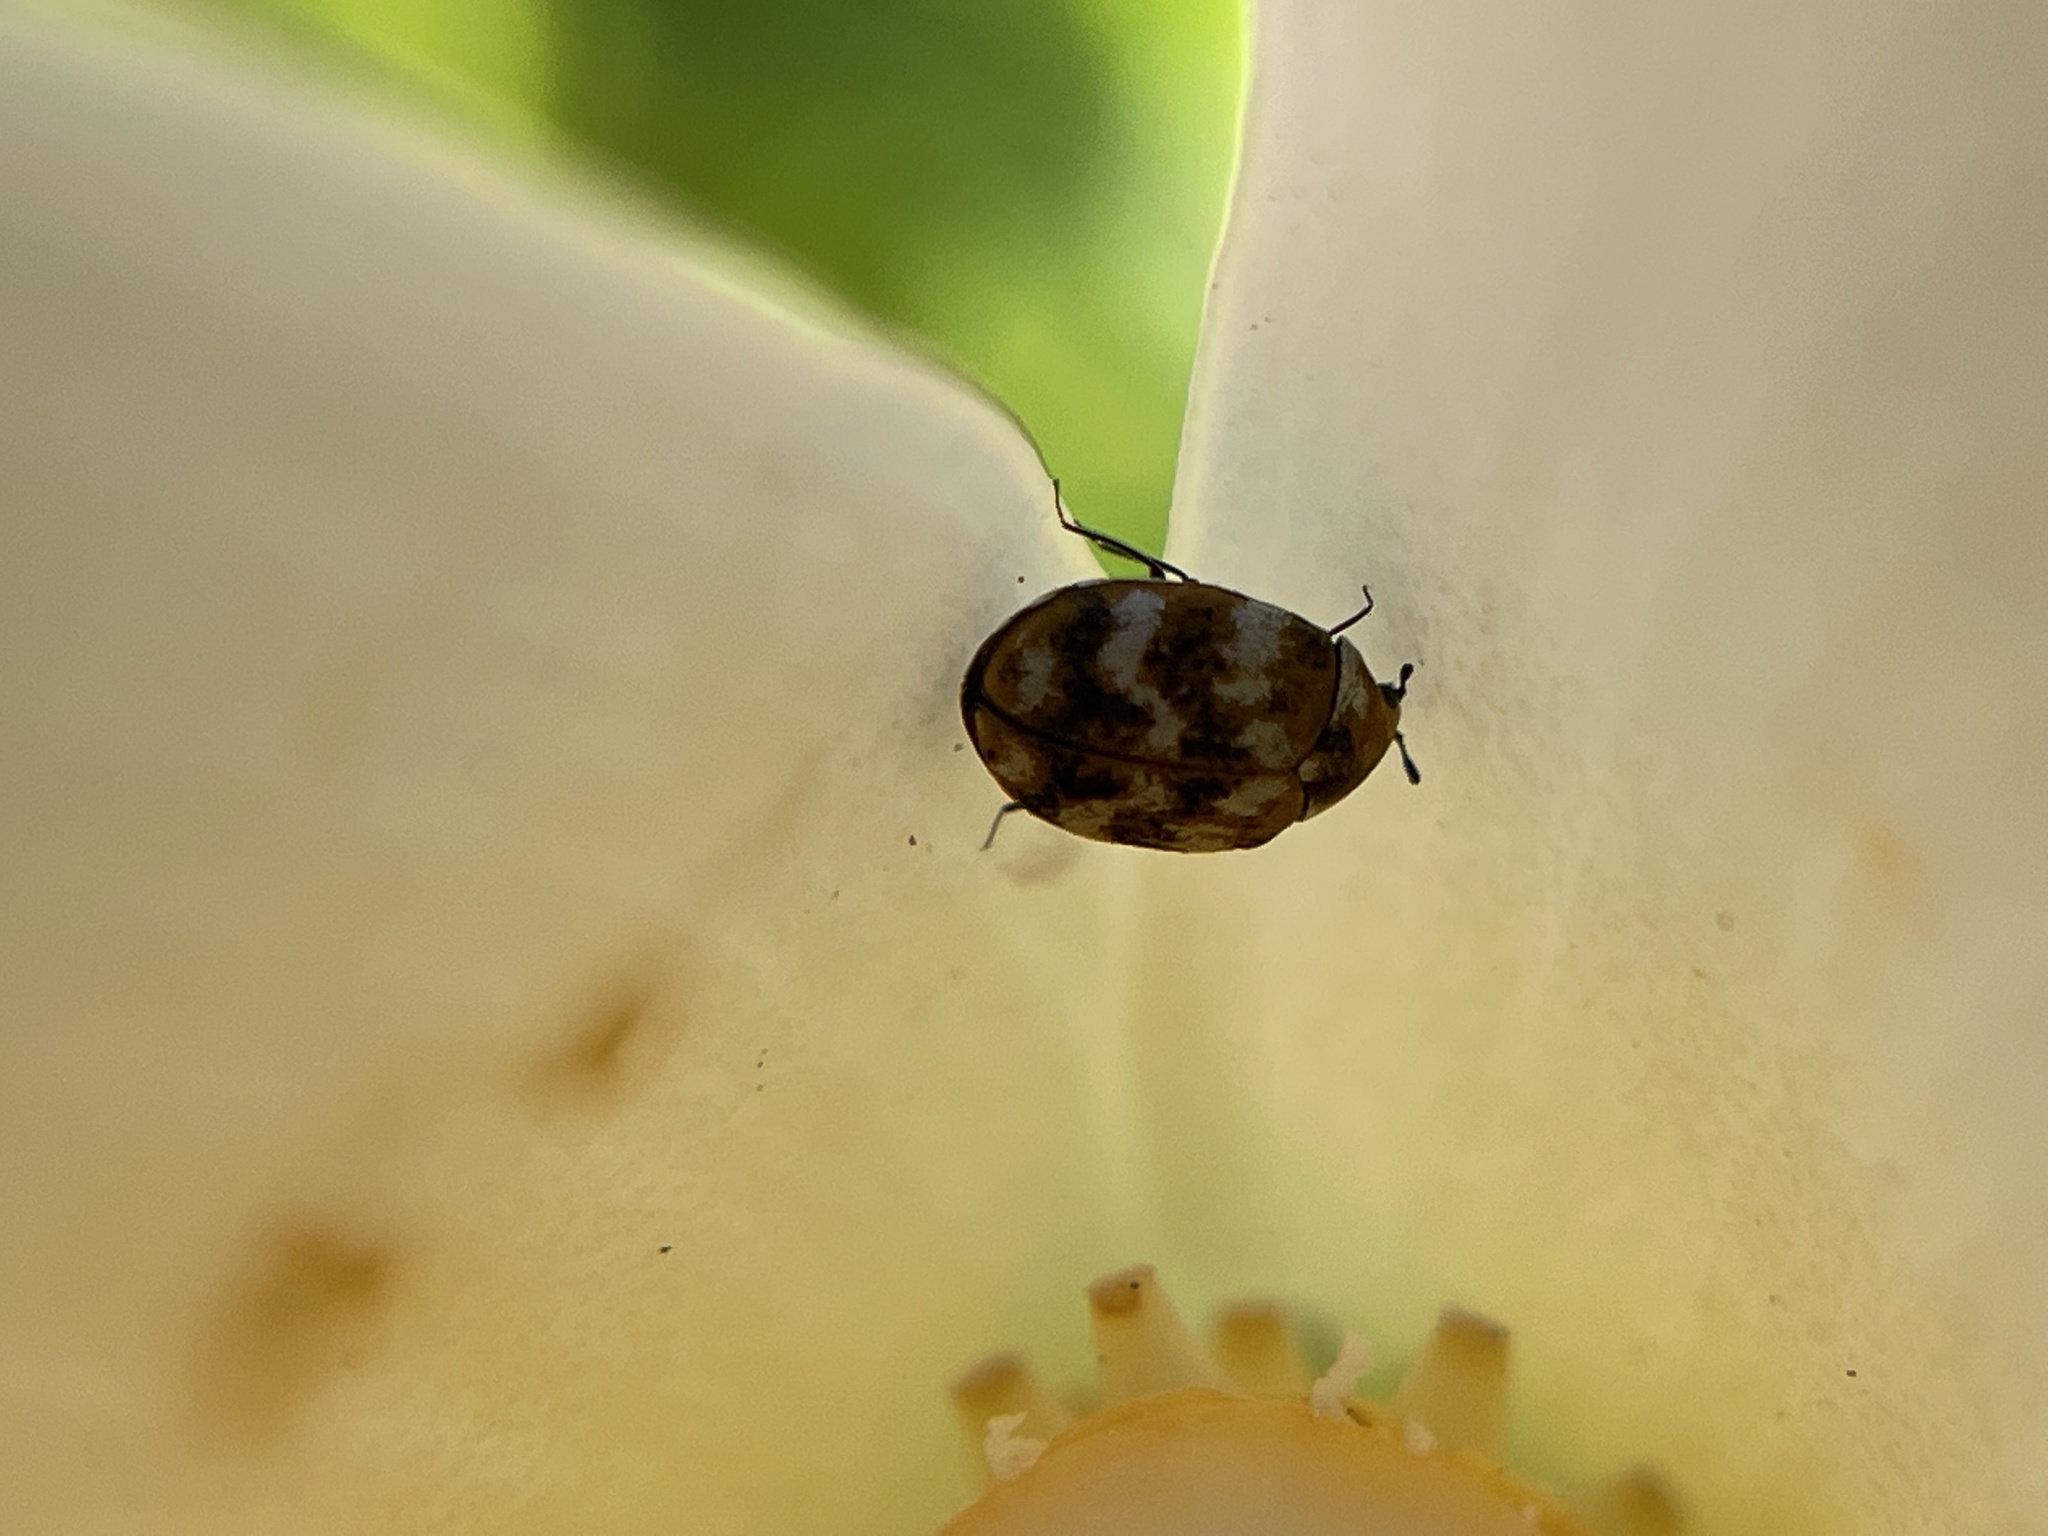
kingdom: Animalia
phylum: Arthropoda
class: Insecta
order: Coleoptera
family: Dermestidae
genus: Anthrenus
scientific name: Anthrenus verbasci
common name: Varied carpet beetle
